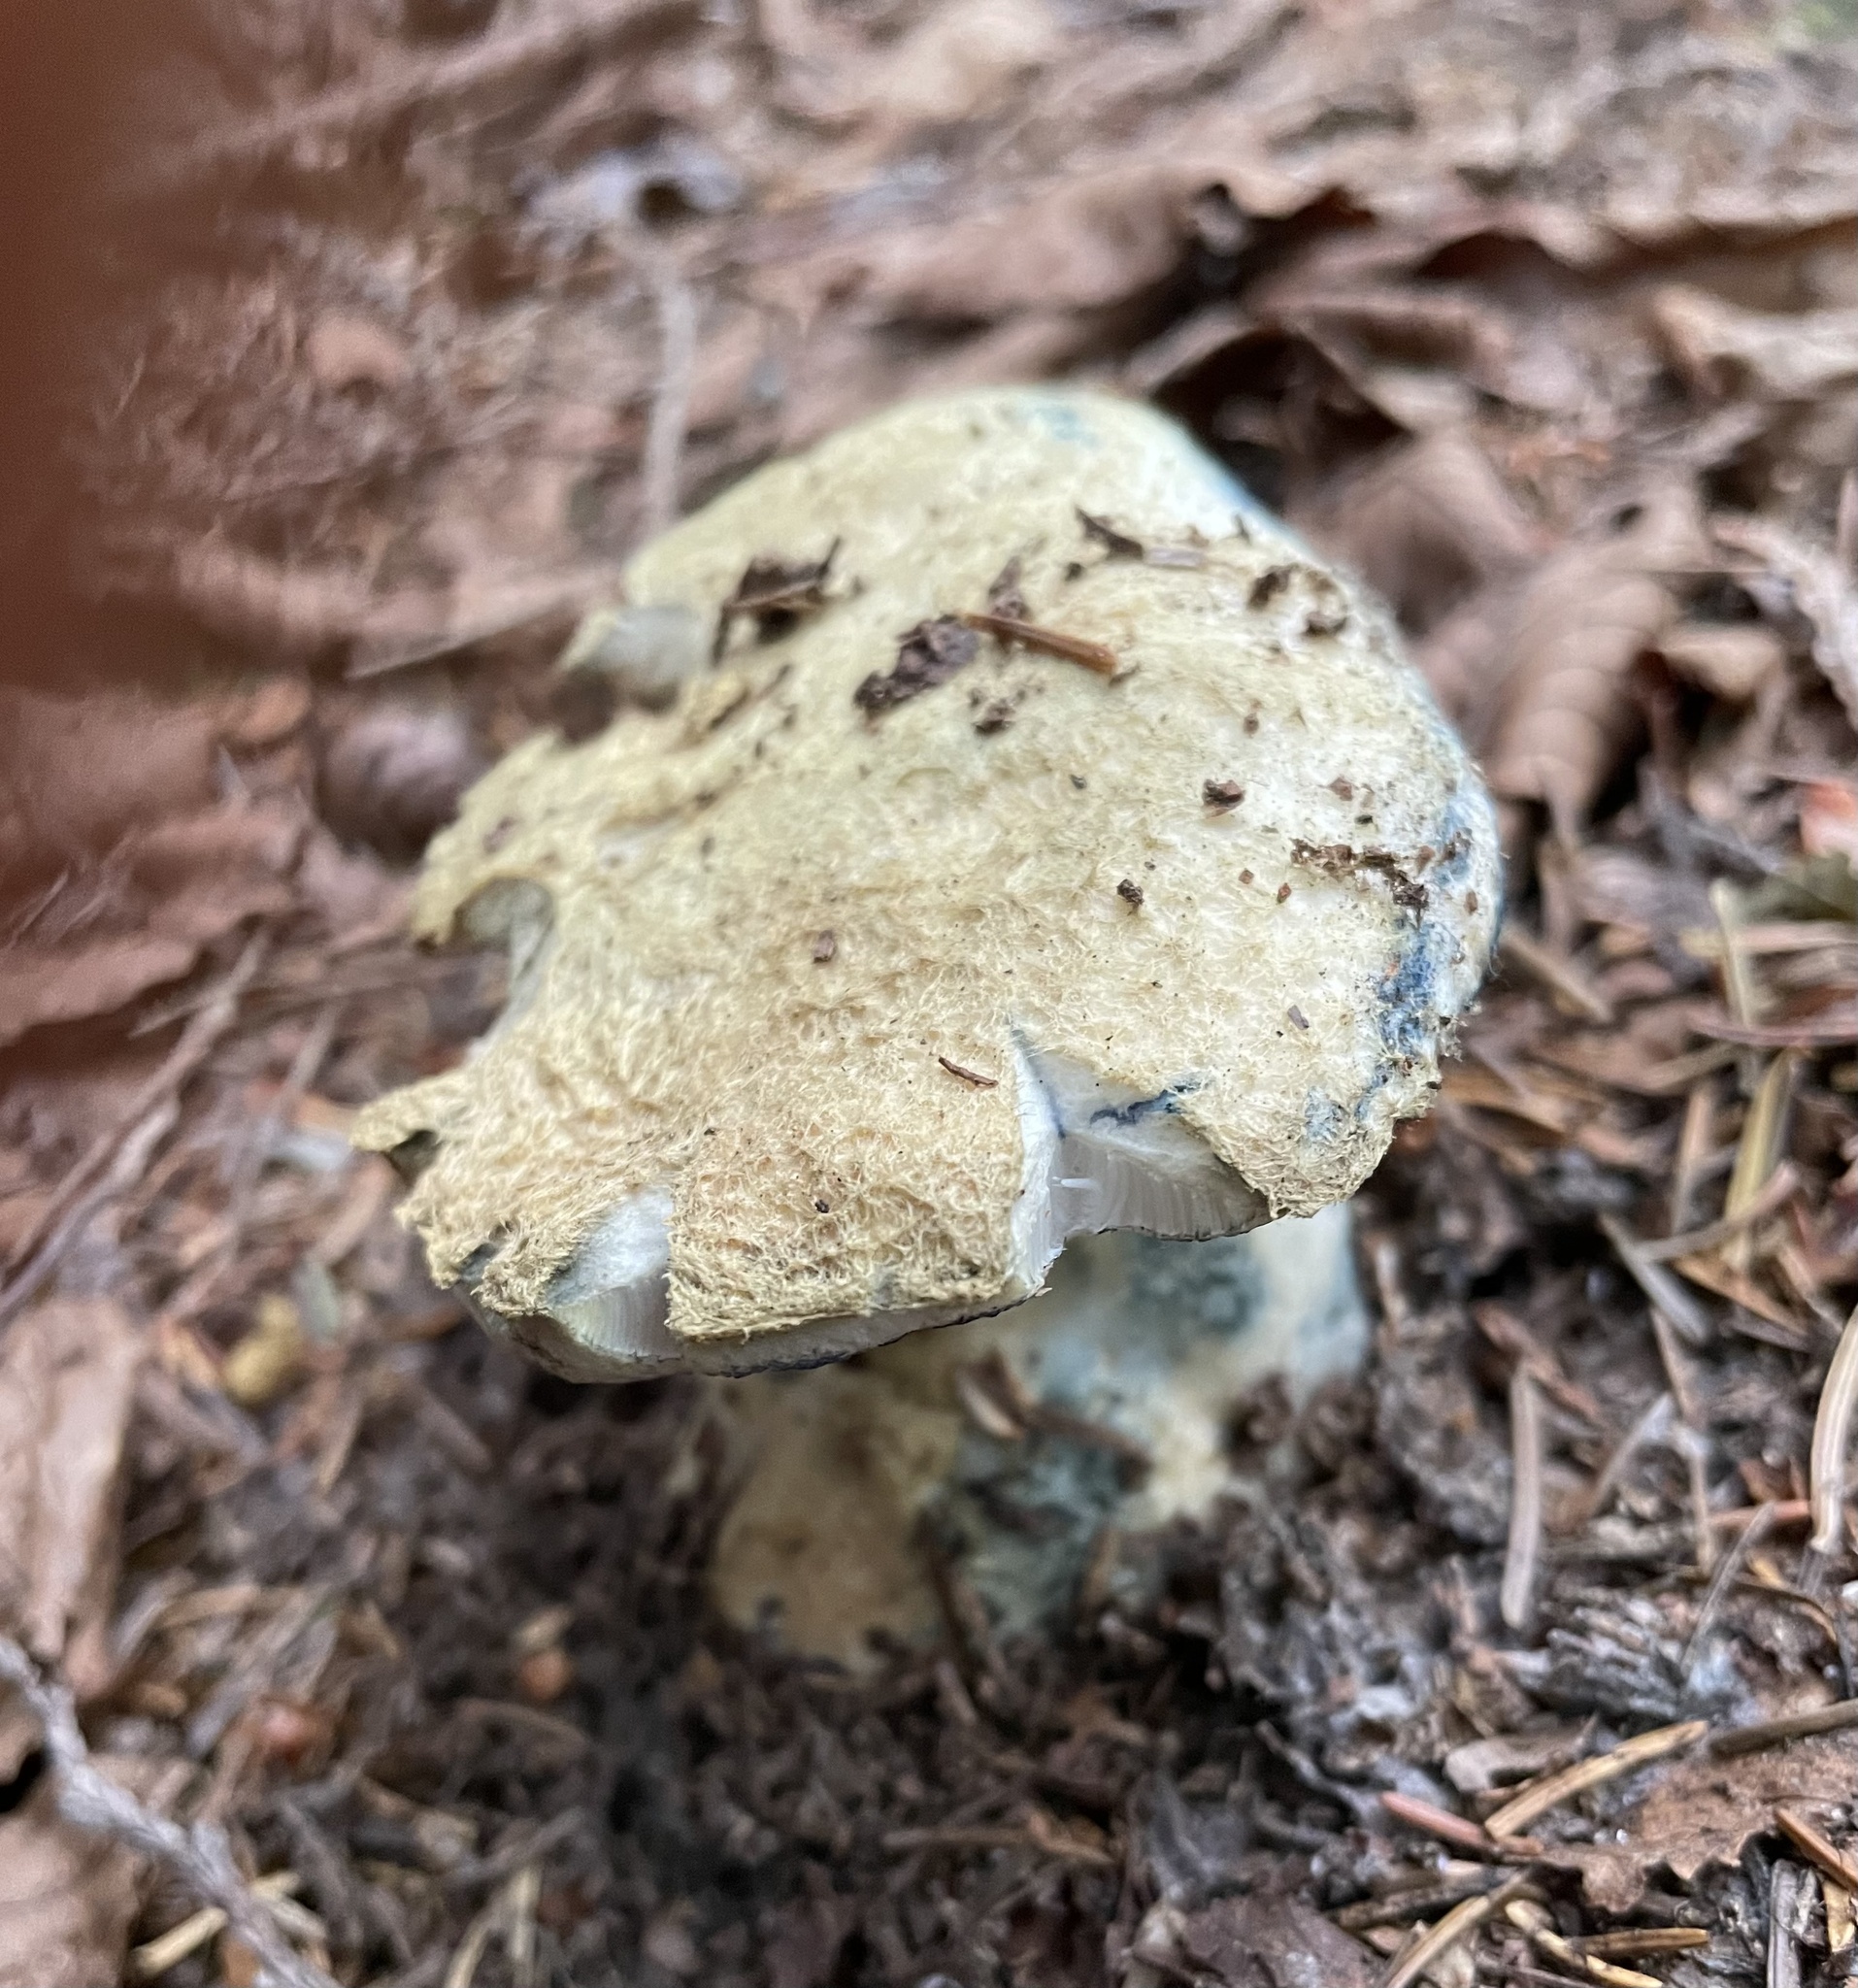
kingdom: Fungi
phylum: Basidiomycota
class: Agaricomycetes
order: Boletales
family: Gyroporaceae
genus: Gyroporus
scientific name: Gyroporus cyanescens
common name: Cornflower bolete
